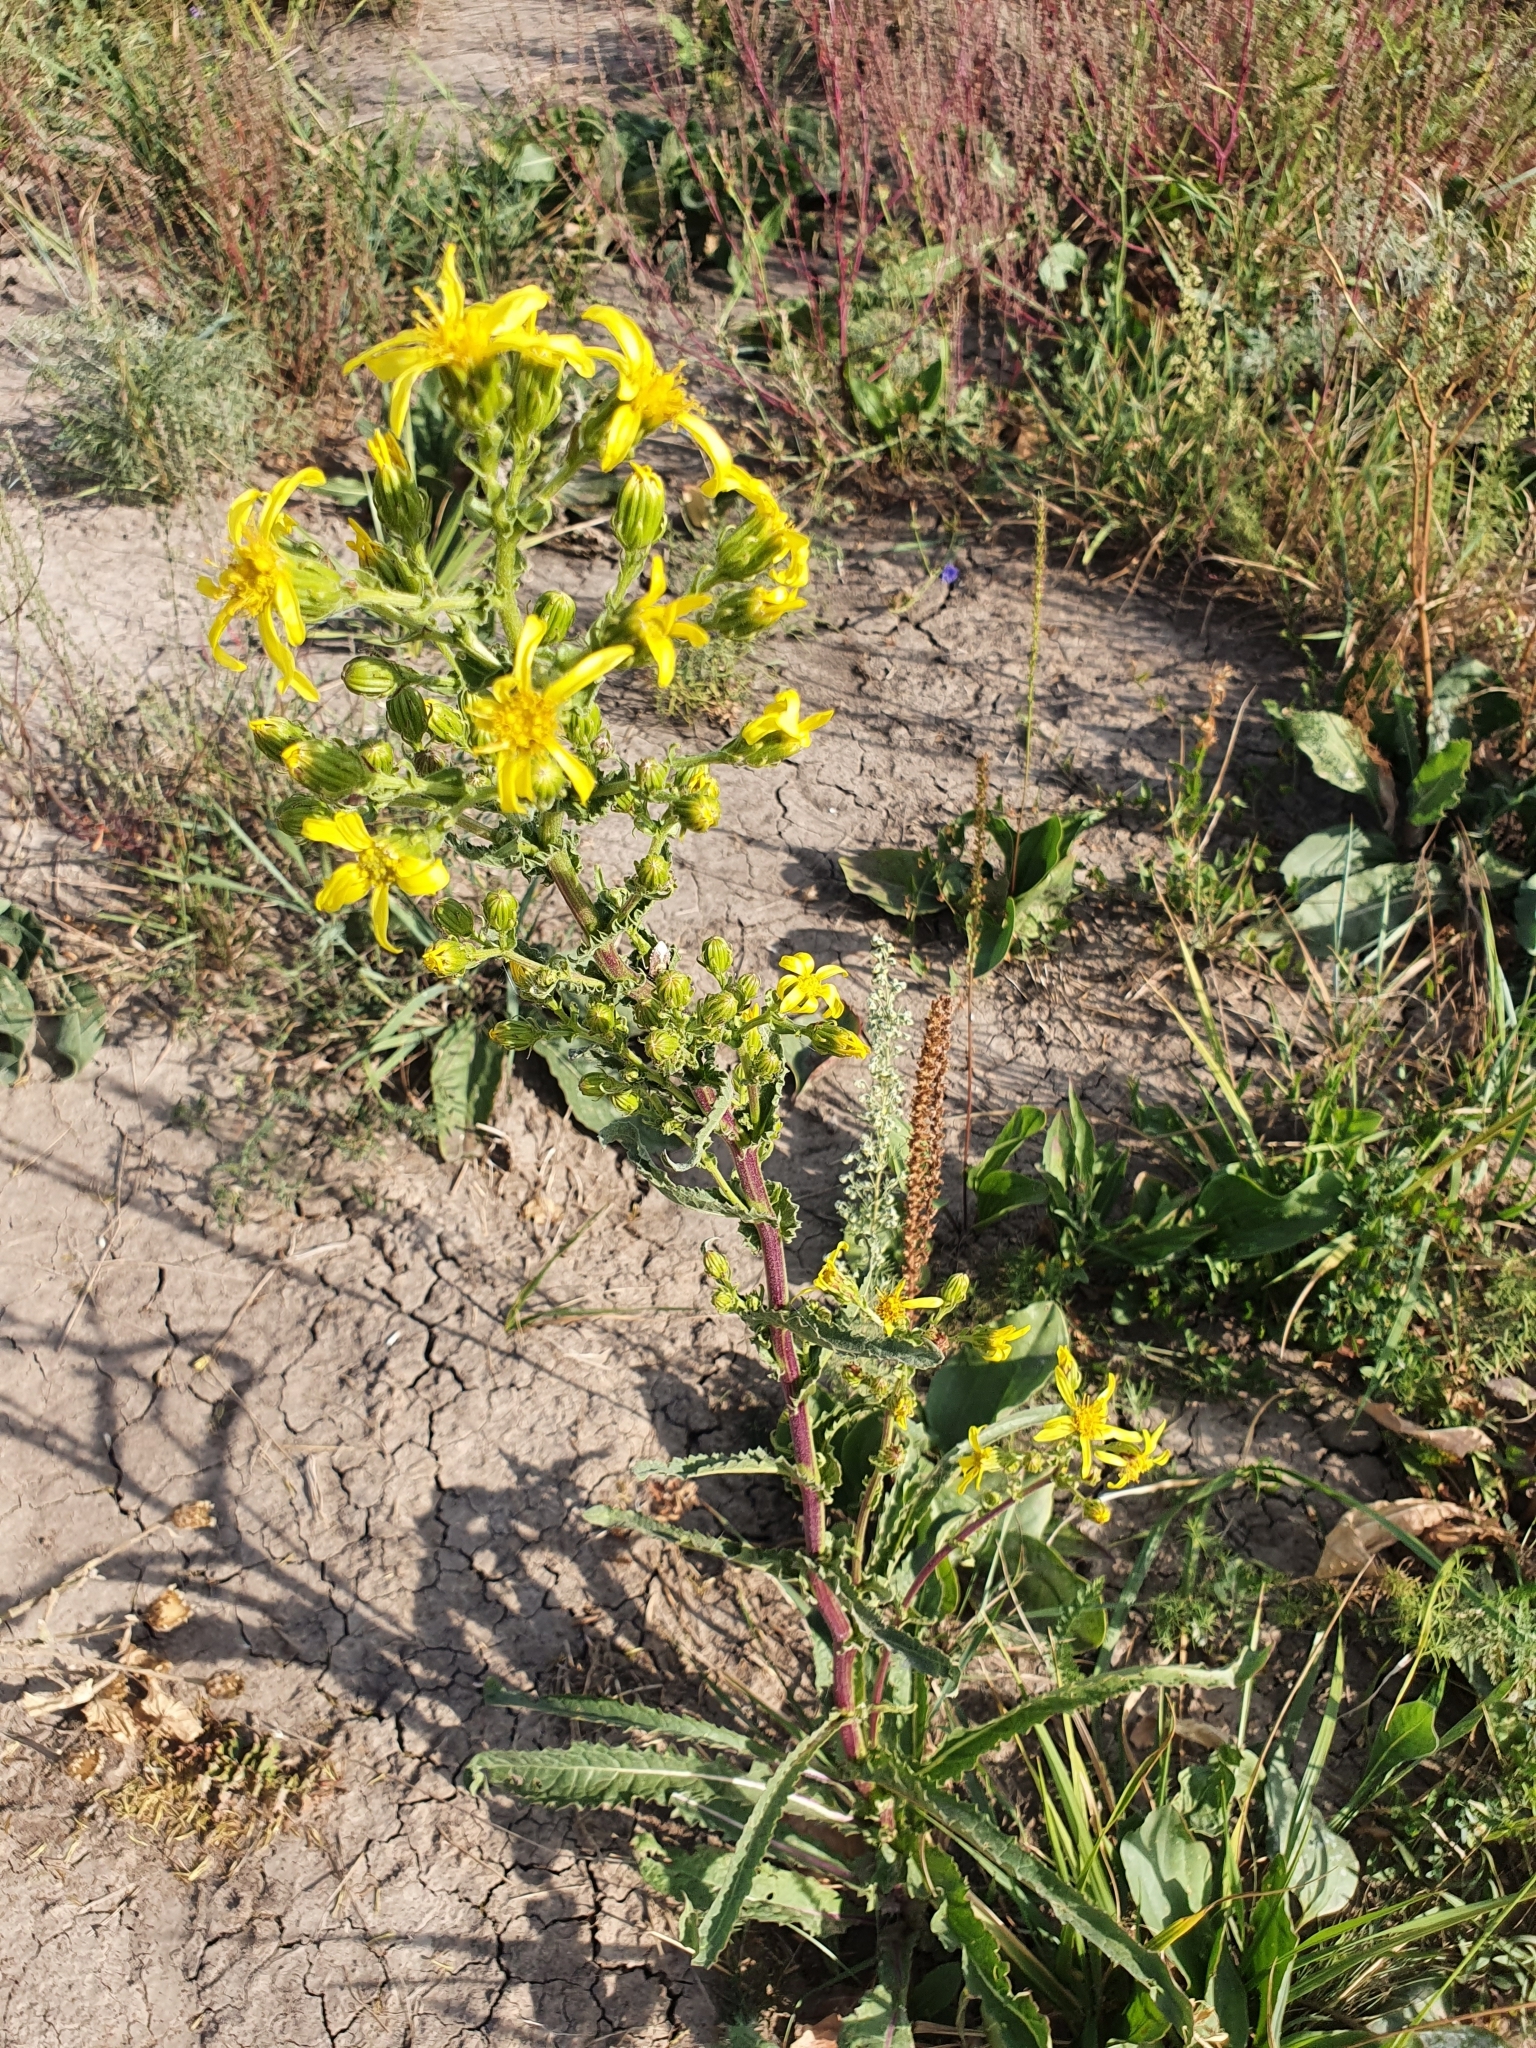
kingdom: Plantae
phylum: Tracheophyta
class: Magnoliopsida
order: Asterales
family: Asteraceae
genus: Jacobaea
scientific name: Jacobaea racemosa
